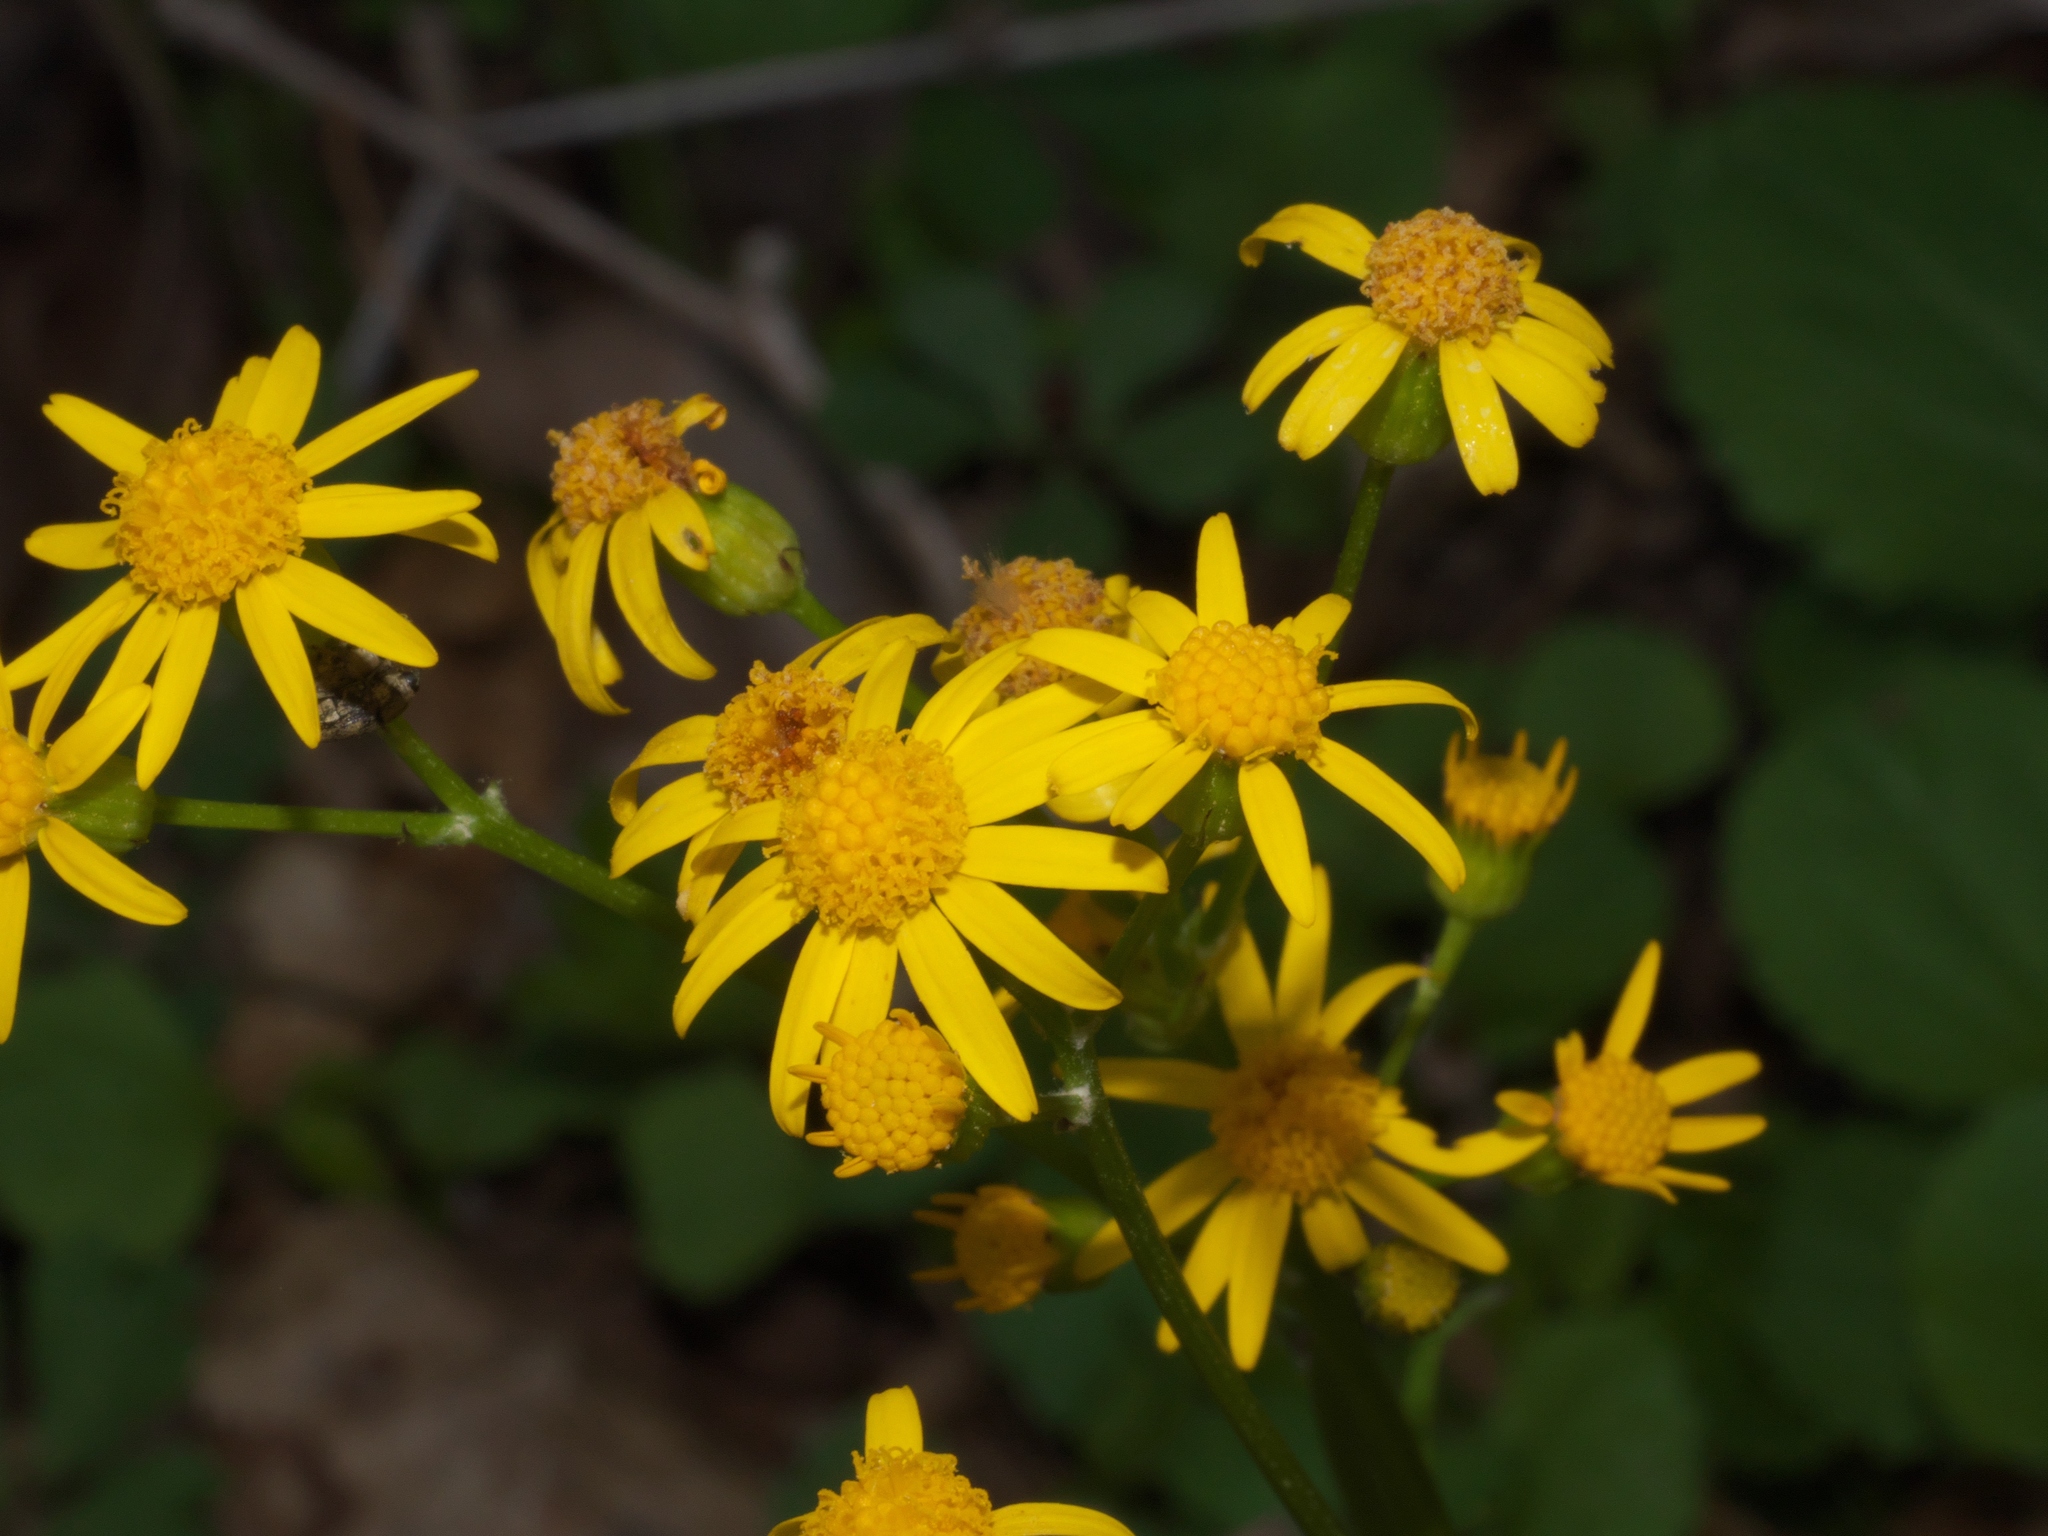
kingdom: Plantae
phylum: Tracheophyta
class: Magnoliopsida
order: Asterales
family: Asteraceae
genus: Packera
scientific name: Packera obovata
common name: Round-leaf ragwort
